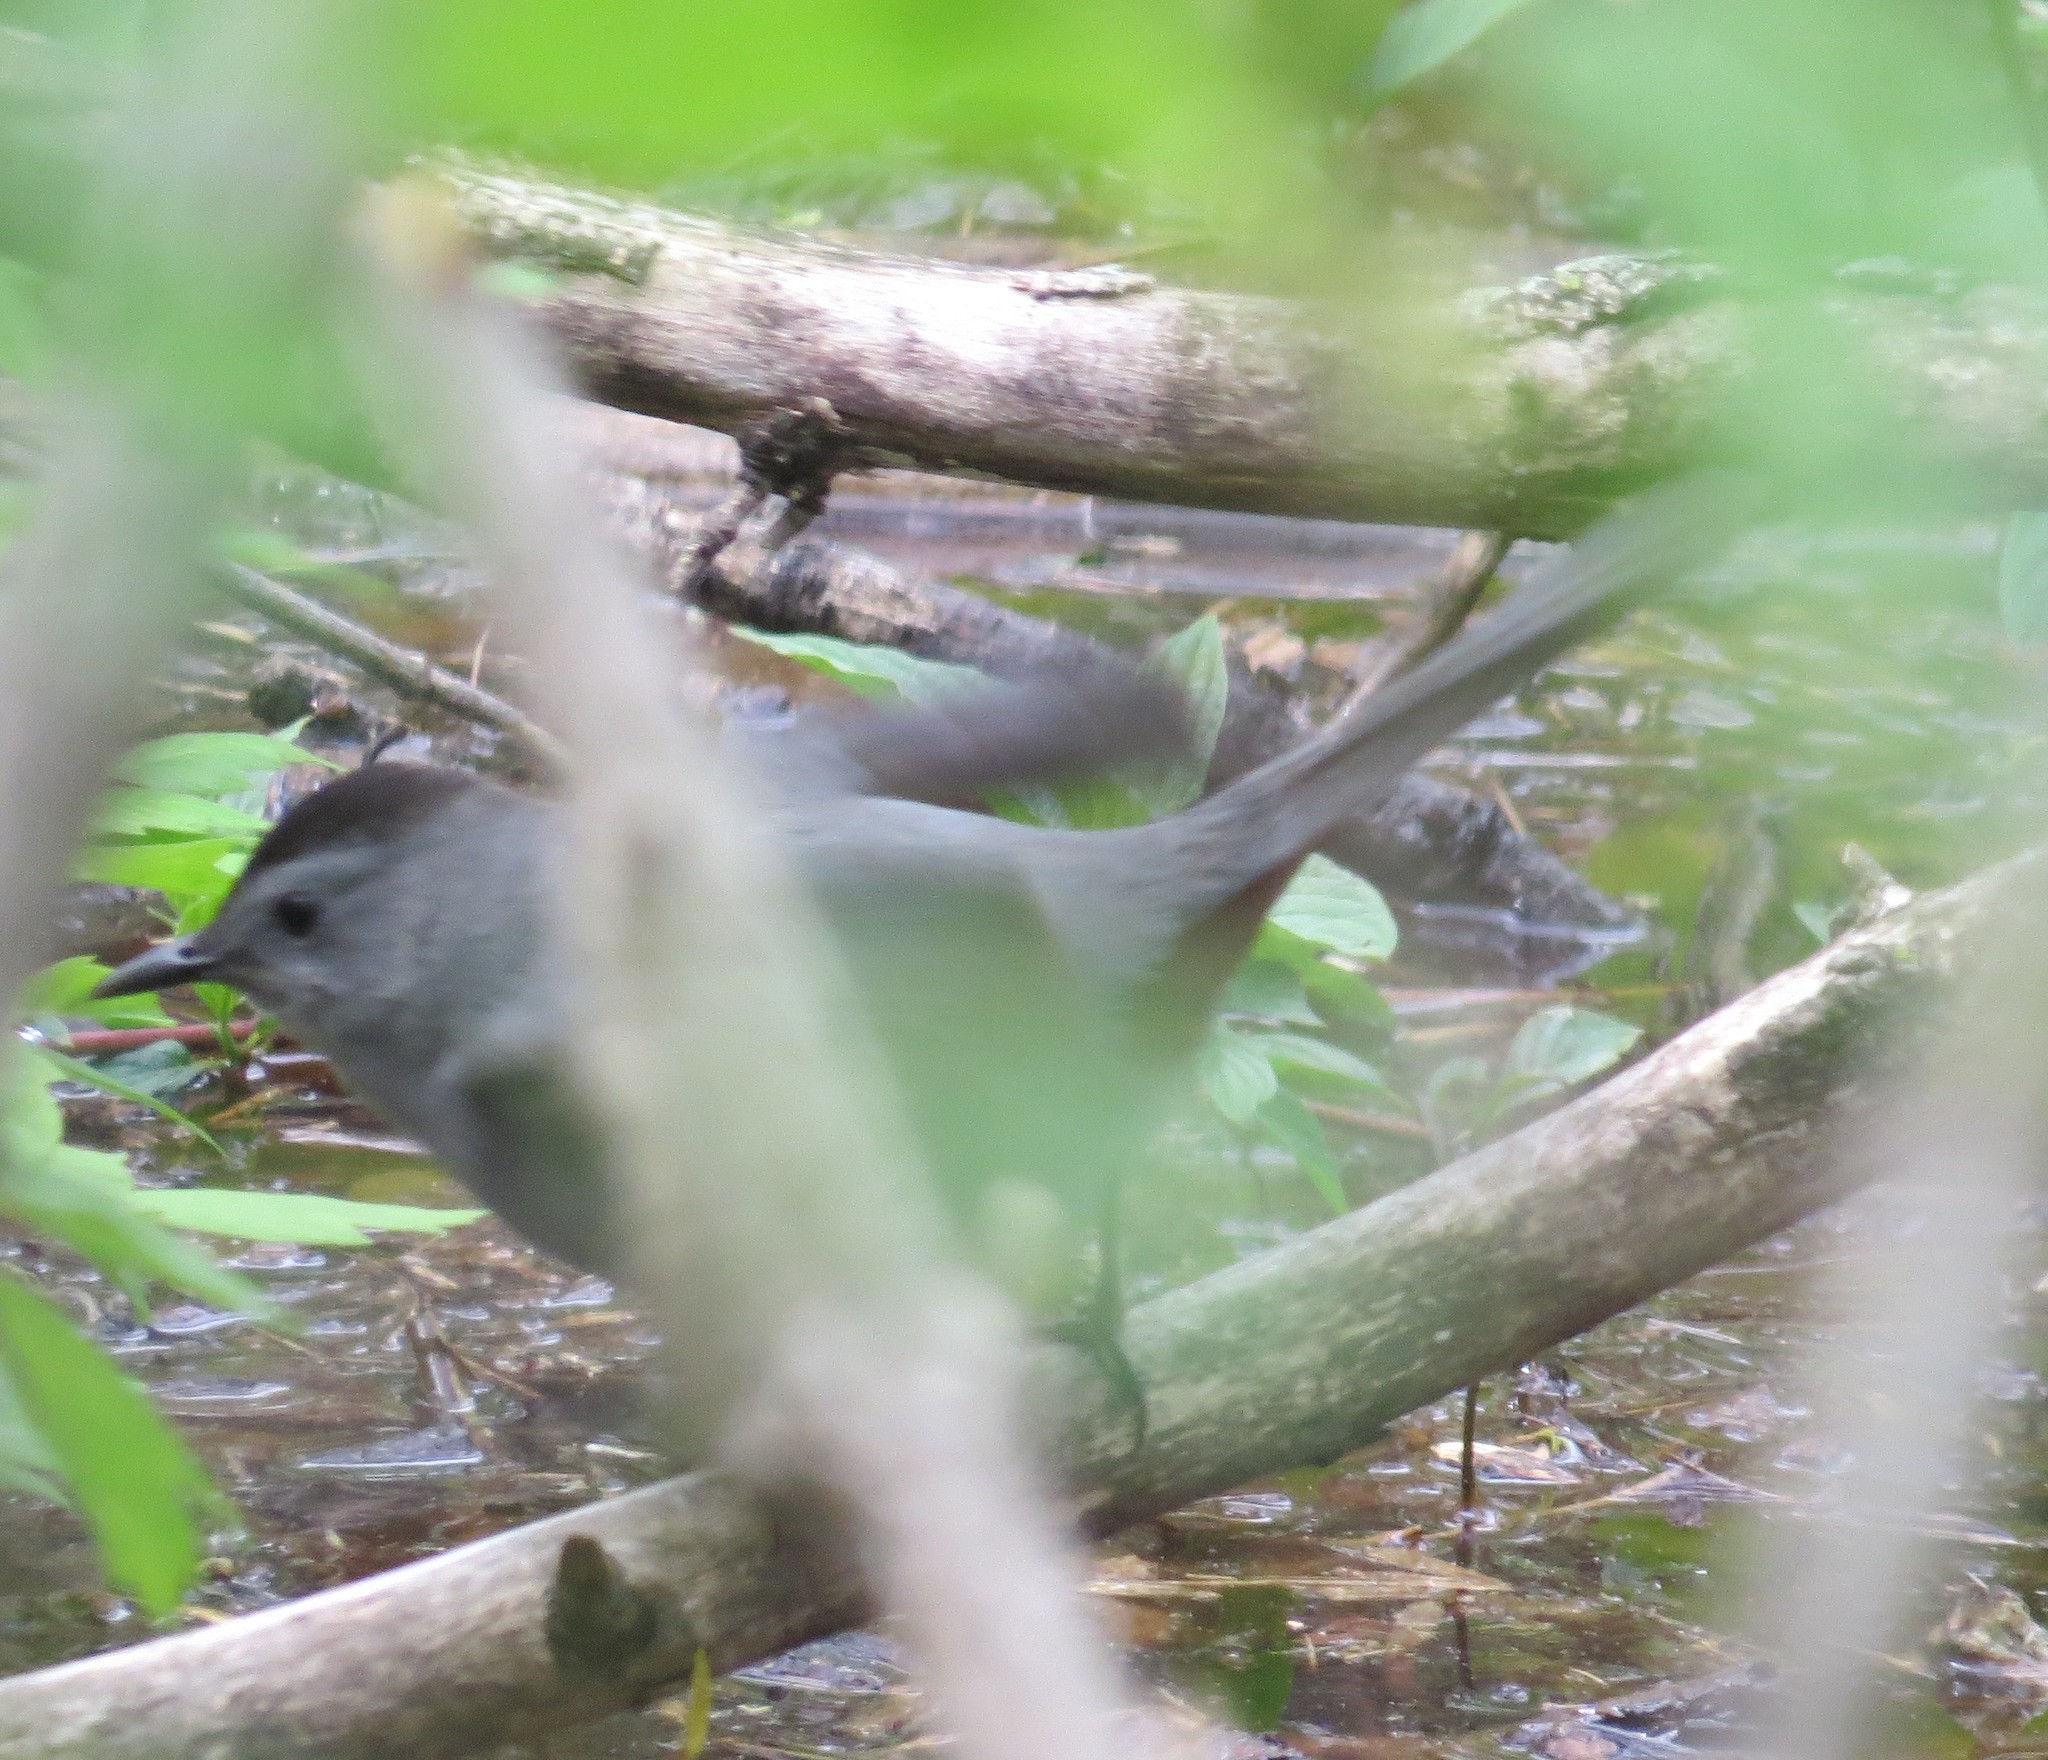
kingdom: Animalia
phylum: Chordata
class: Aves
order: Passeriformes
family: Mimidae
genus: Dumetella
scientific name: Dumetella carolinensis
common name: Gray catbird
